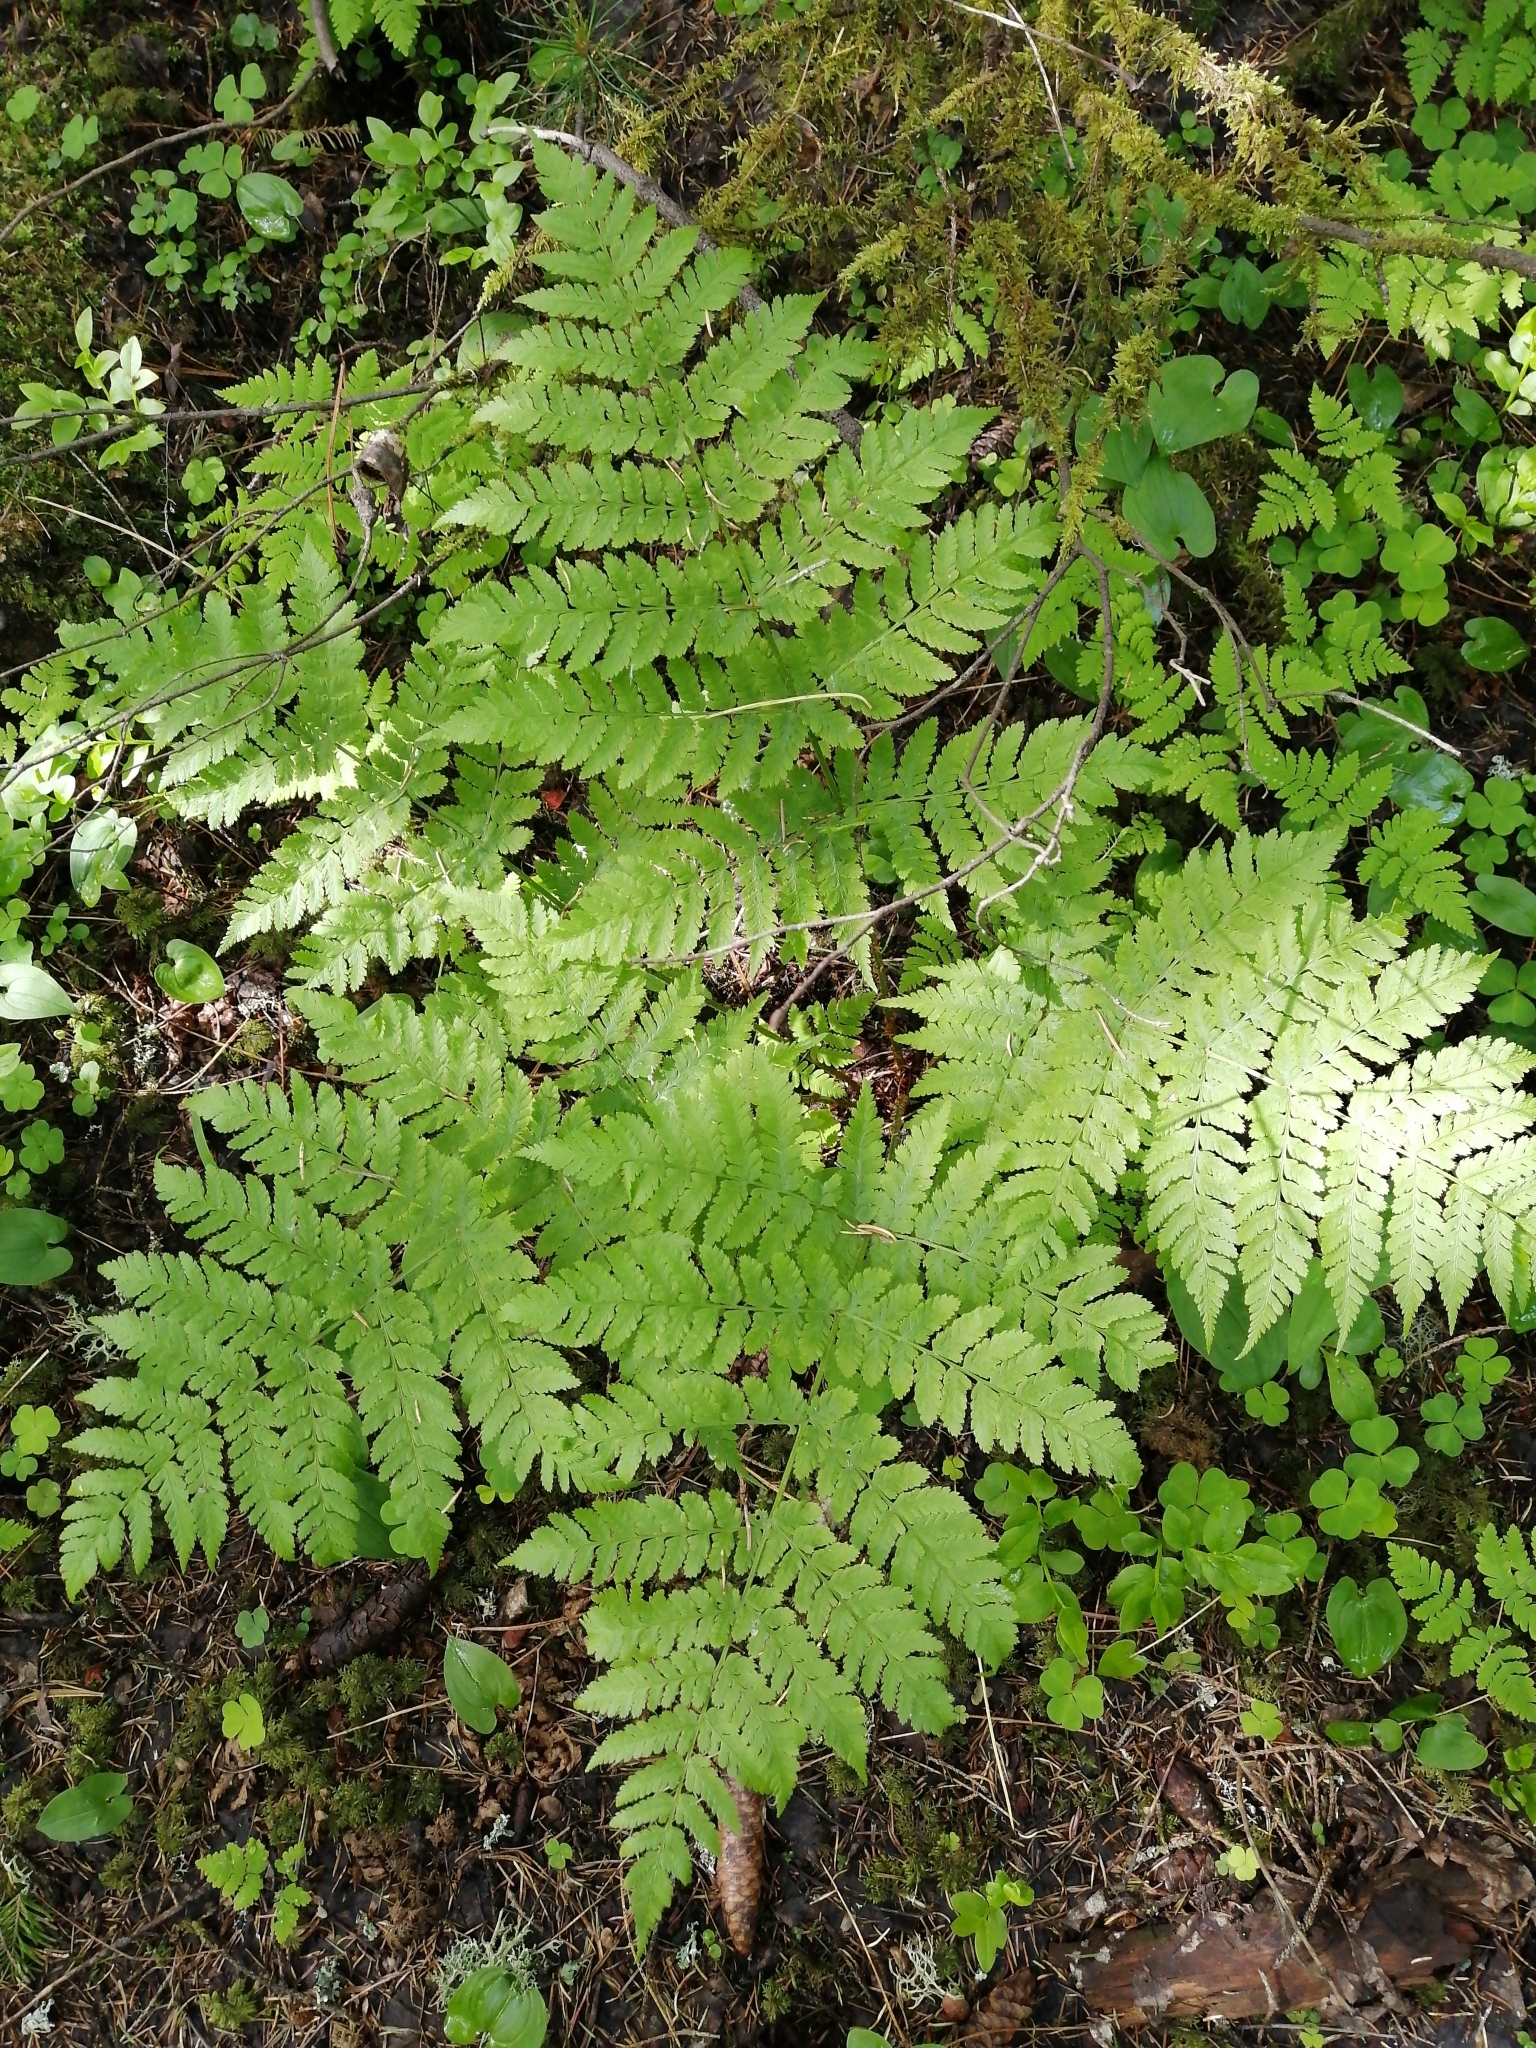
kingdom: Plantae
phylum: Tracheophyta
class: Polypodiopsida
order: Polypodiales
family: Dryopteridaceae
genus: Dryopteris
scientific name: Dryopteris expansa
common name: Northern buckler fern
